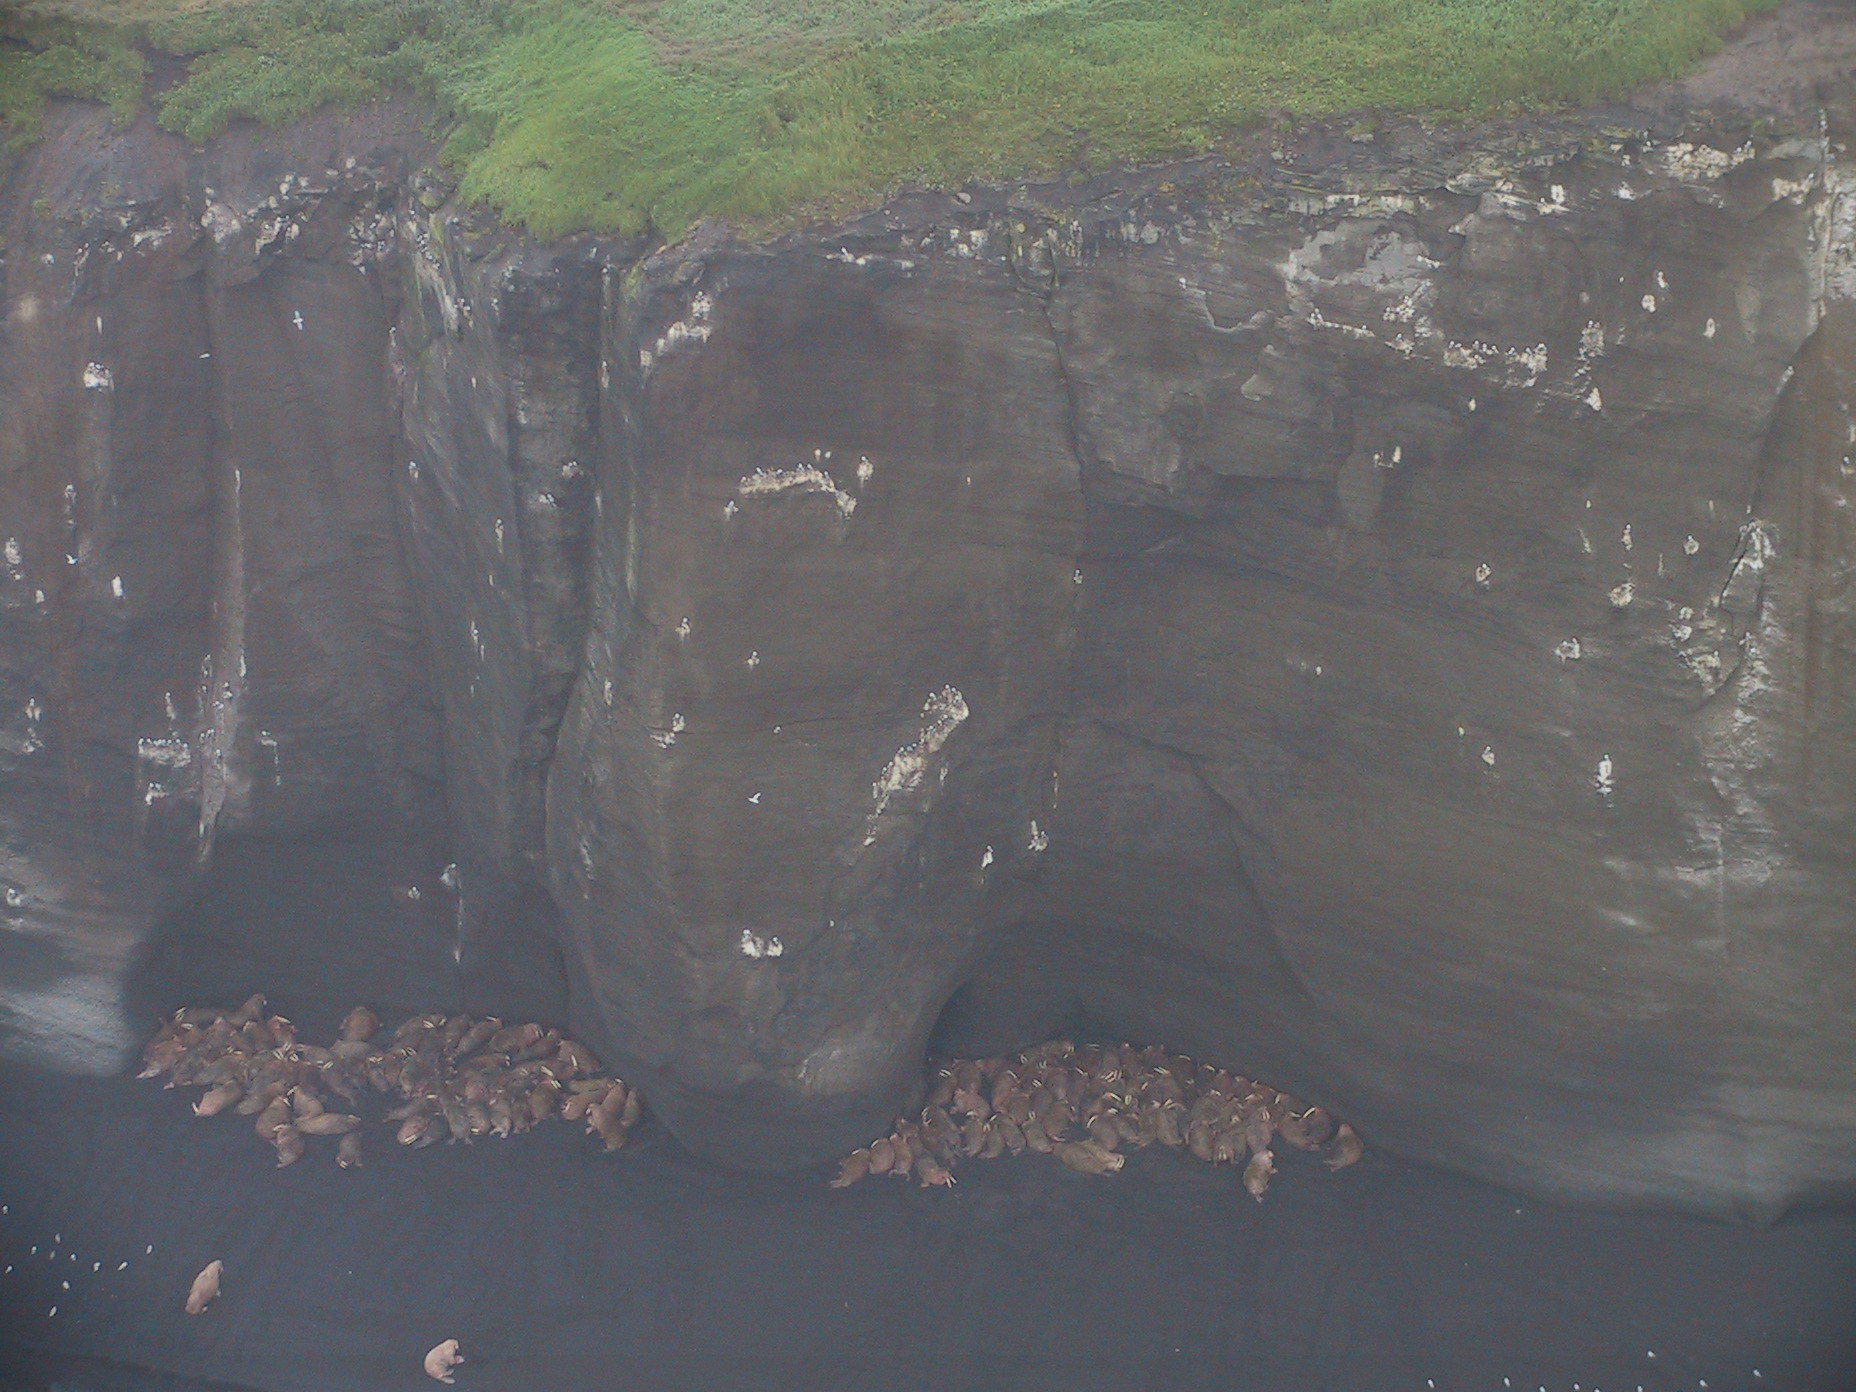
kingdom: Animalia
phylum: Chordata
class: Mammalia
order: Carnivora
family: Odobenidae
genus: Odobenus
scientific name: Odobenus rosmarus
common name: Walrus
